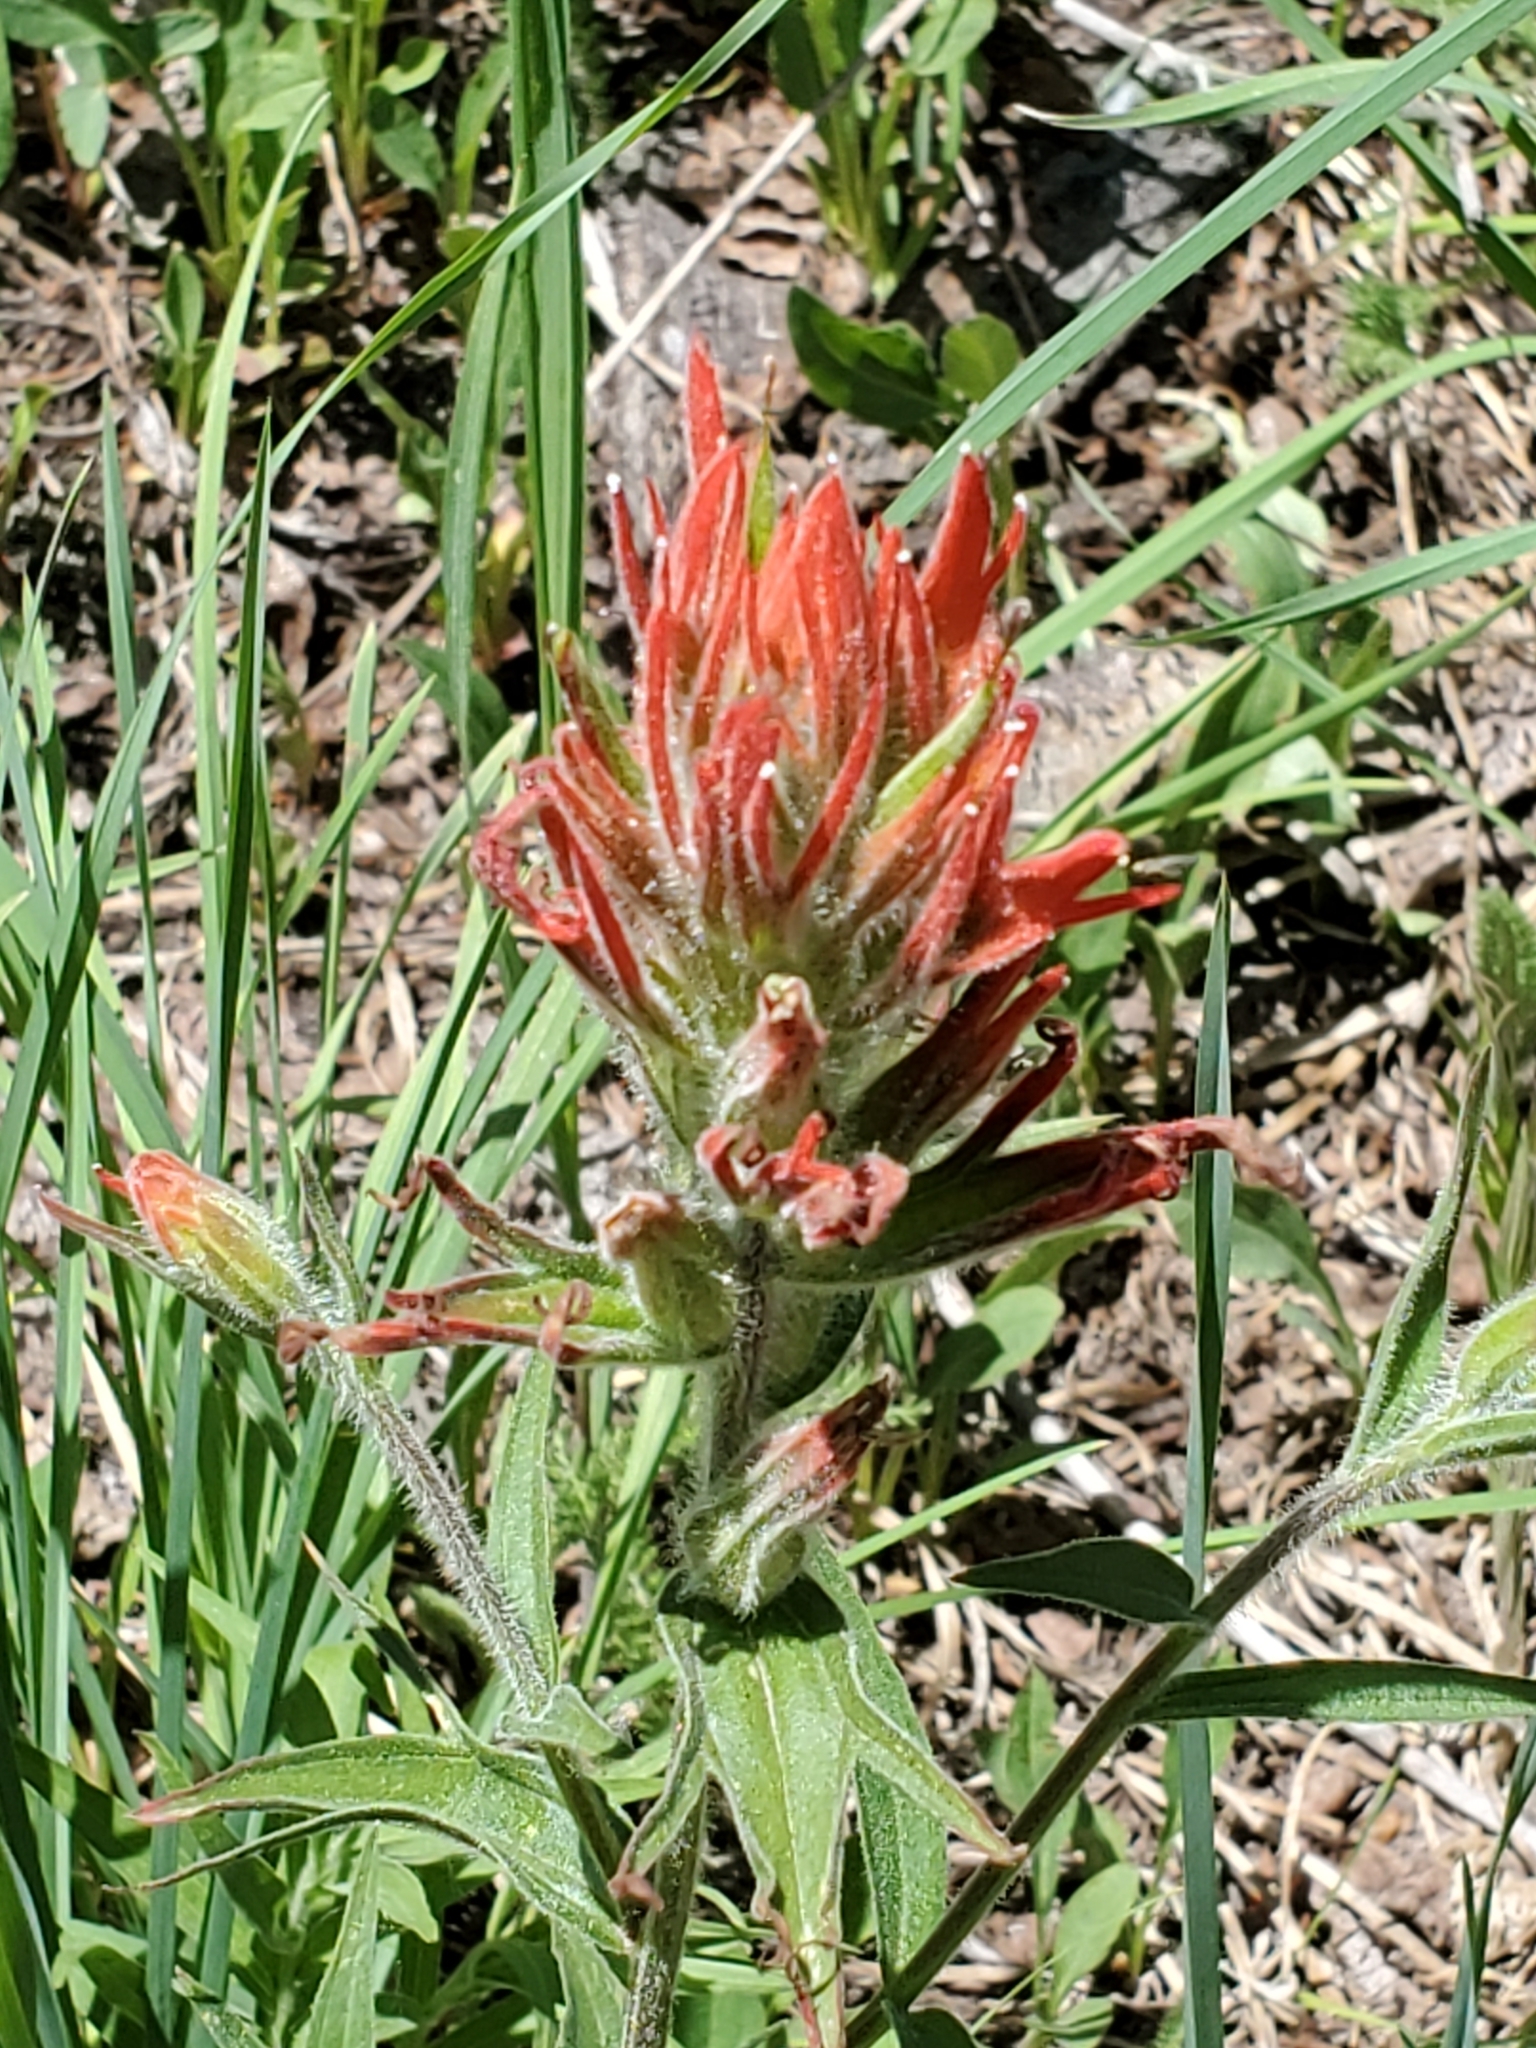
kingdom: Plantae
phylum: Tracheophyta
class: Magnoliopsida
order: Lamiales
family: Orobanchaceae
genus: Castilleja
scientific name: Castilleja miniata
